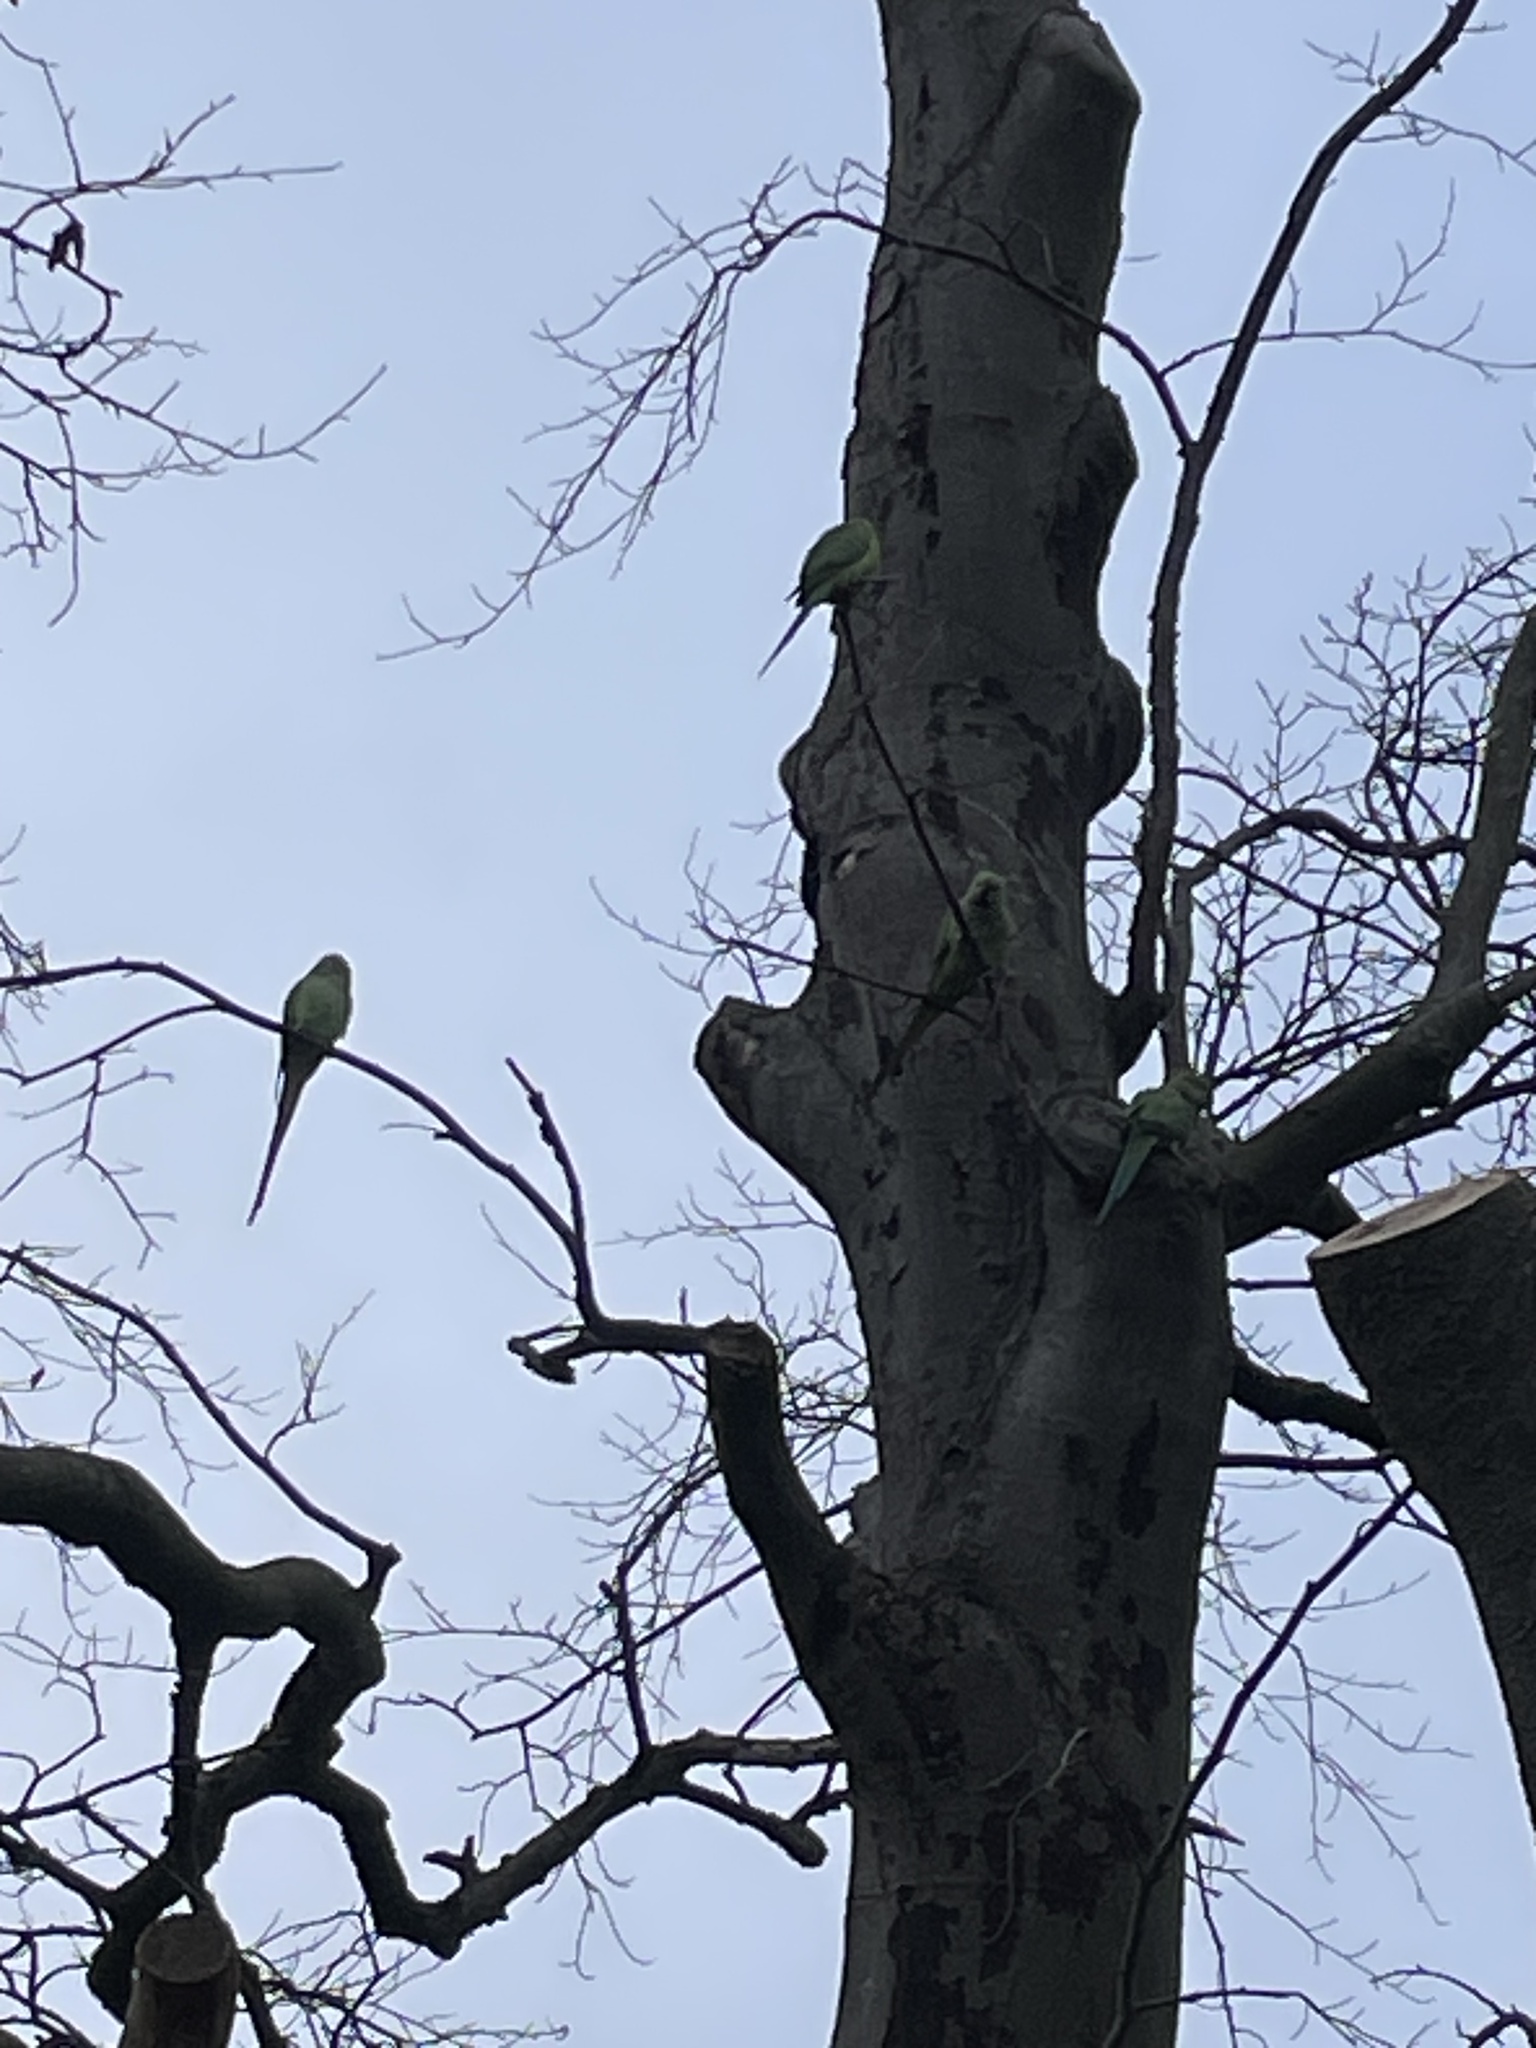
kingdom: Animalia
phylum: Chordata
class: Aves
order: Psittaciformes
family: Psittacidae
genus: Psittacula
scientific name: Psittacula krameri
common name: Rose-ringed parakeet
